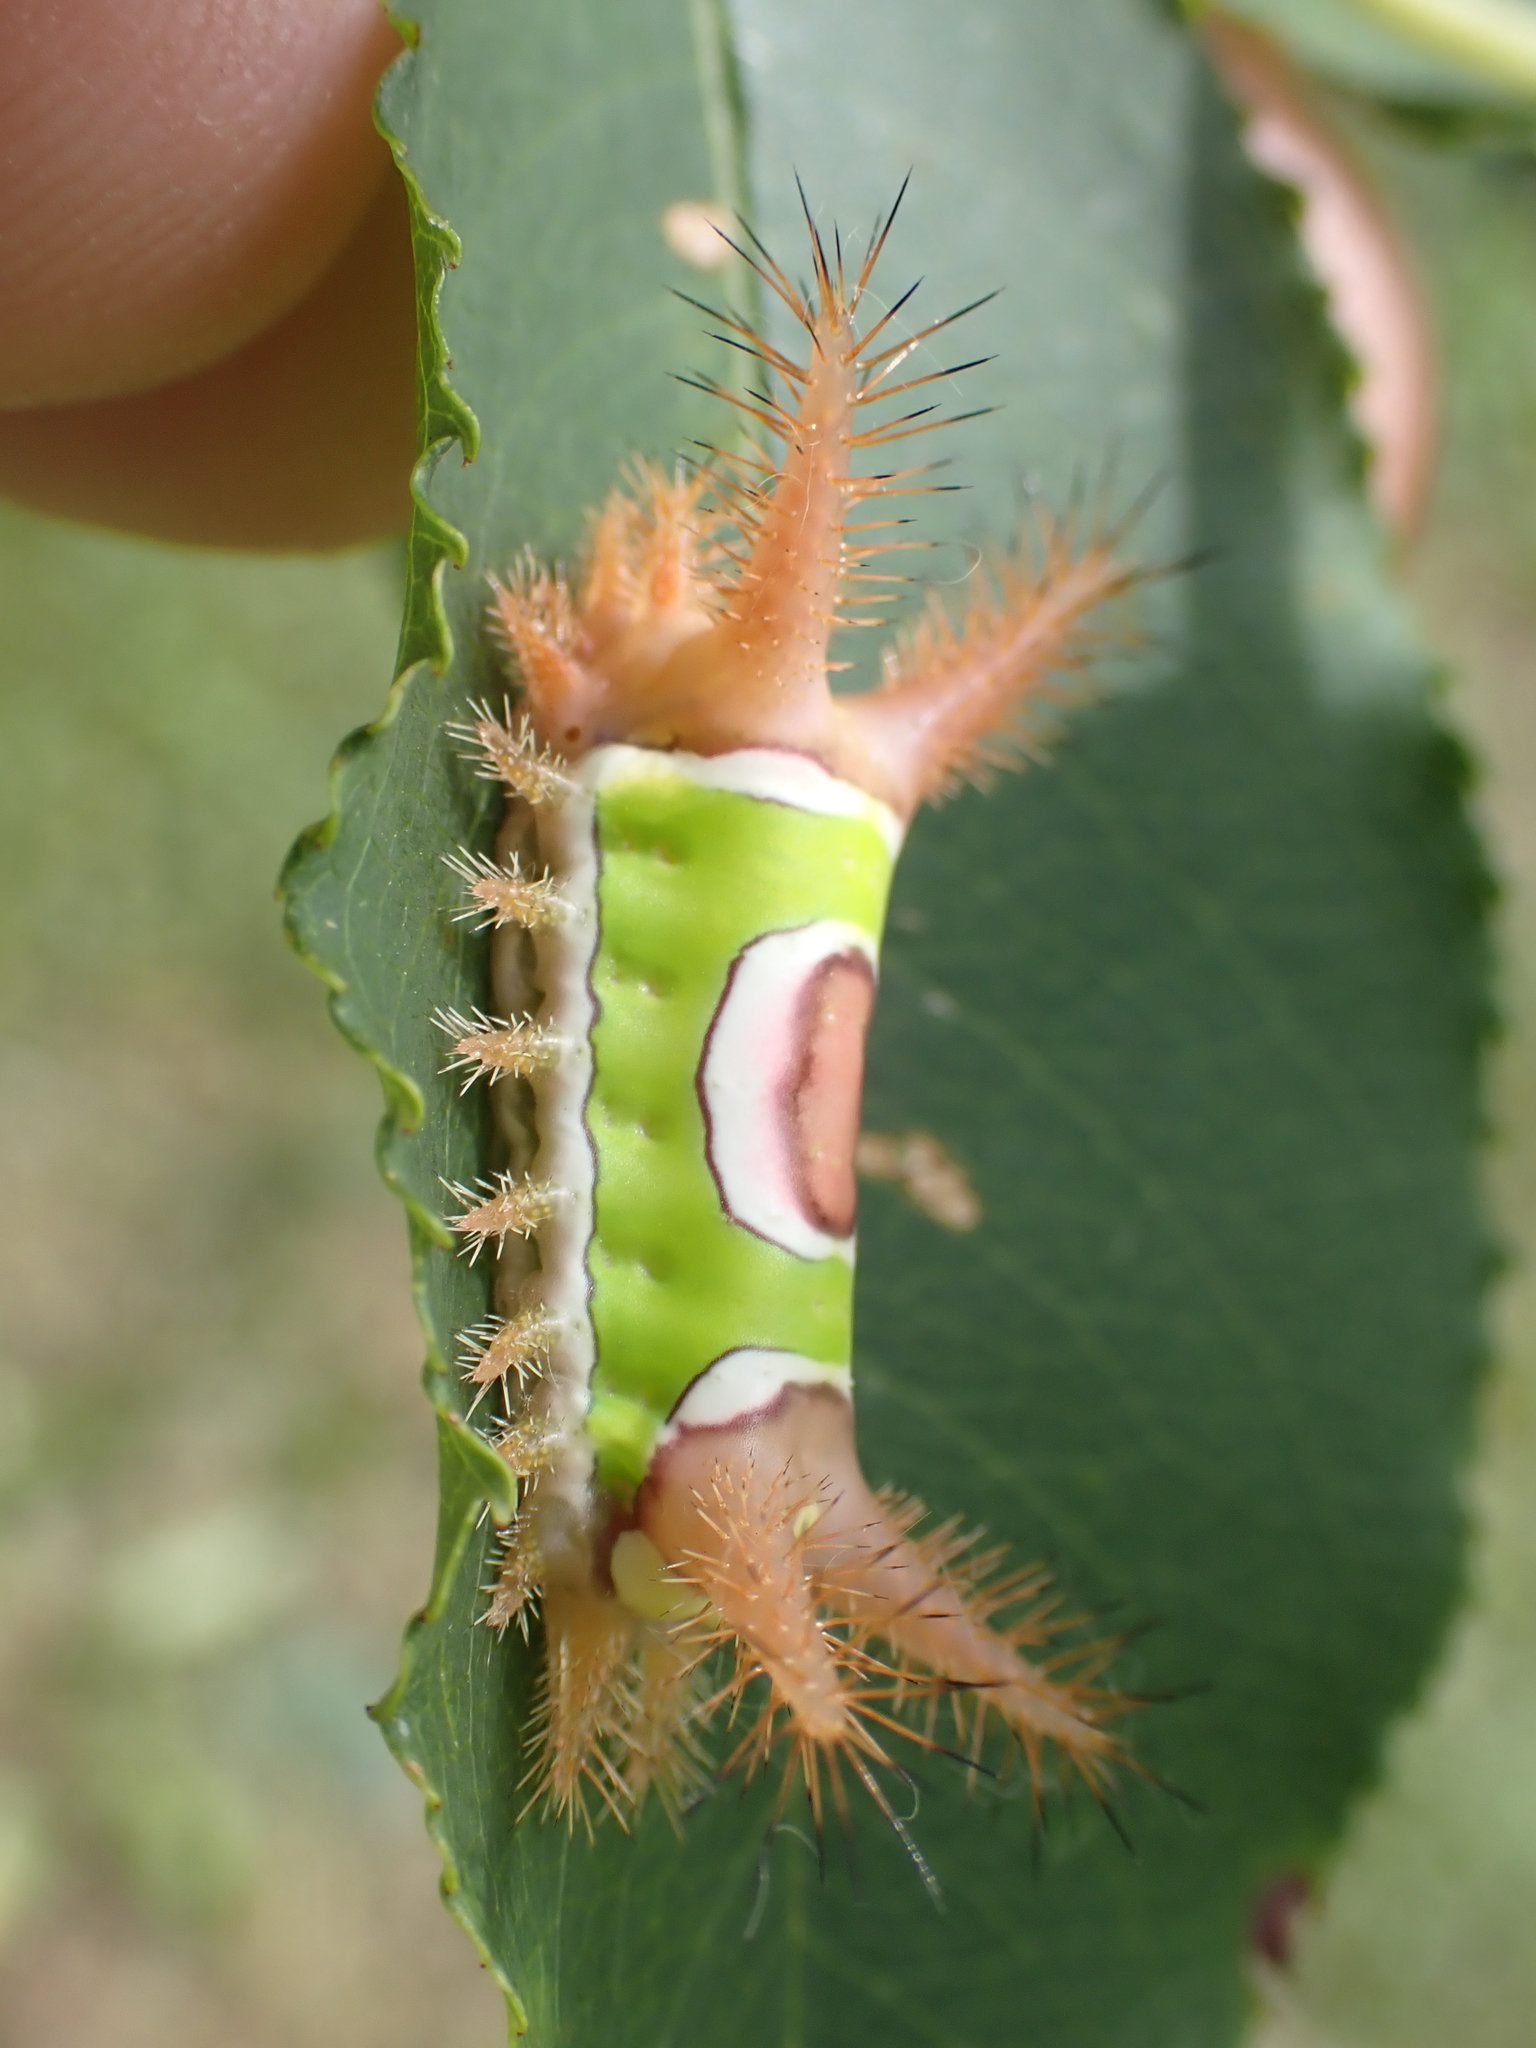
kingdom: Animalia
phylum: Arthropoda
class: Insecta
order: Lepidoptera
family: Limacodidae
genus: Acharia
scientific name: Acharia stimulea
